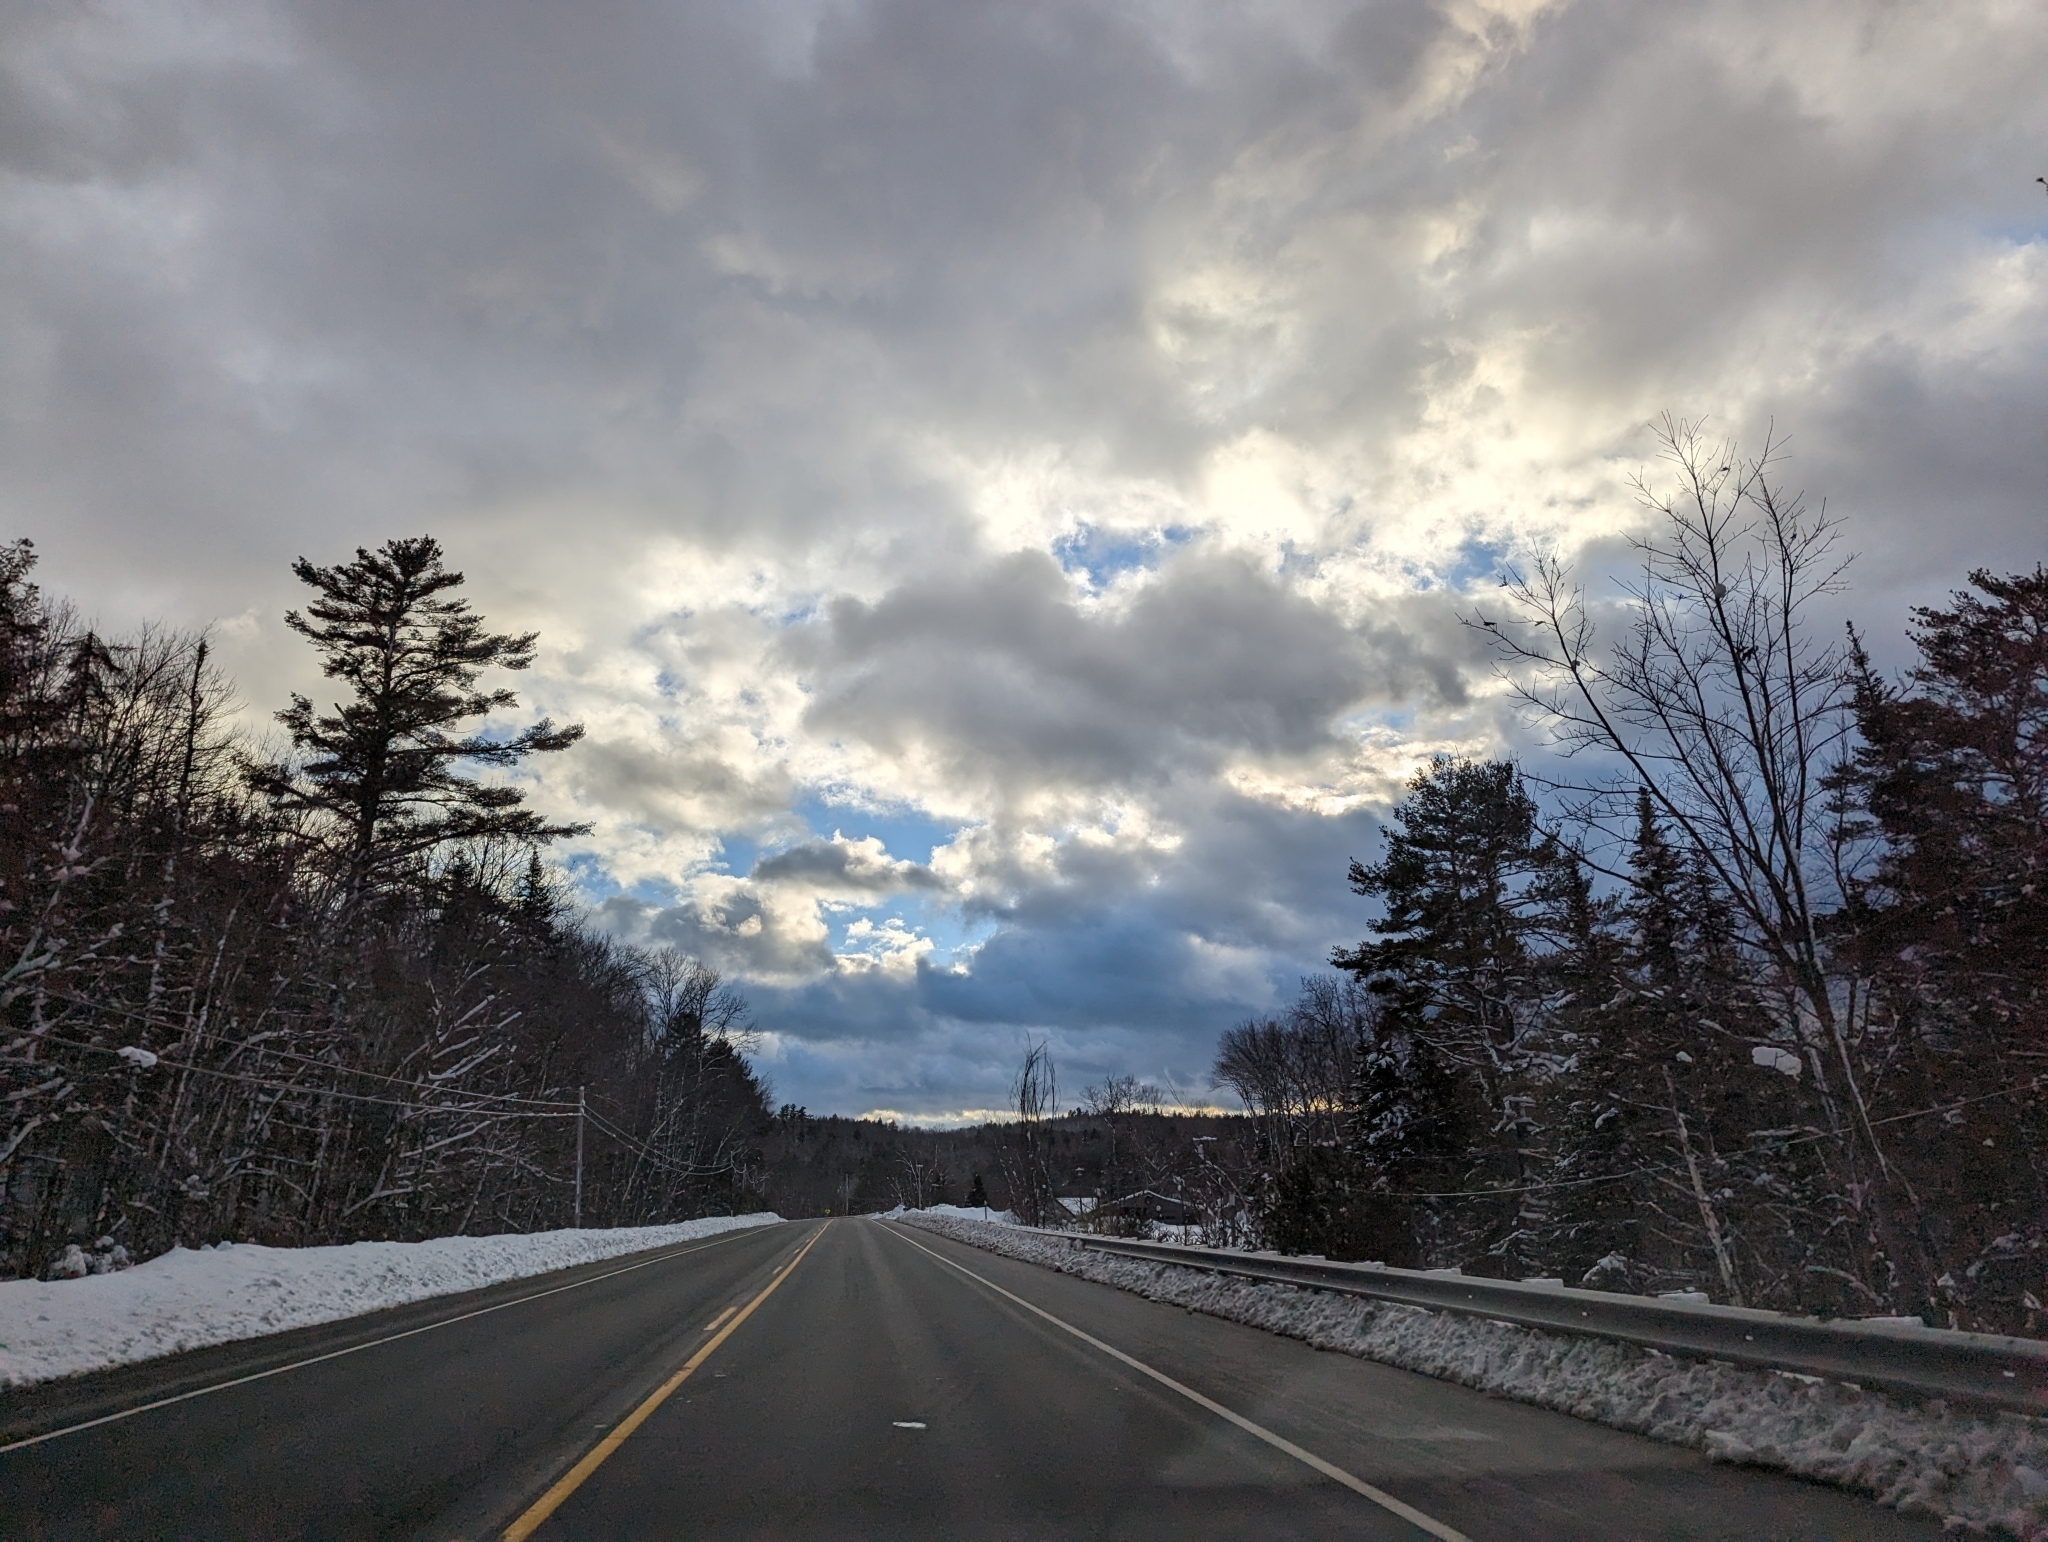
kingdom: Plantae
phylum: Tracheophyta
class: Pinopsida
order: Pinales
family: Pinaceae
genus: Pinus
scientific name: Pinus strobus
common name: Weymouth pine
